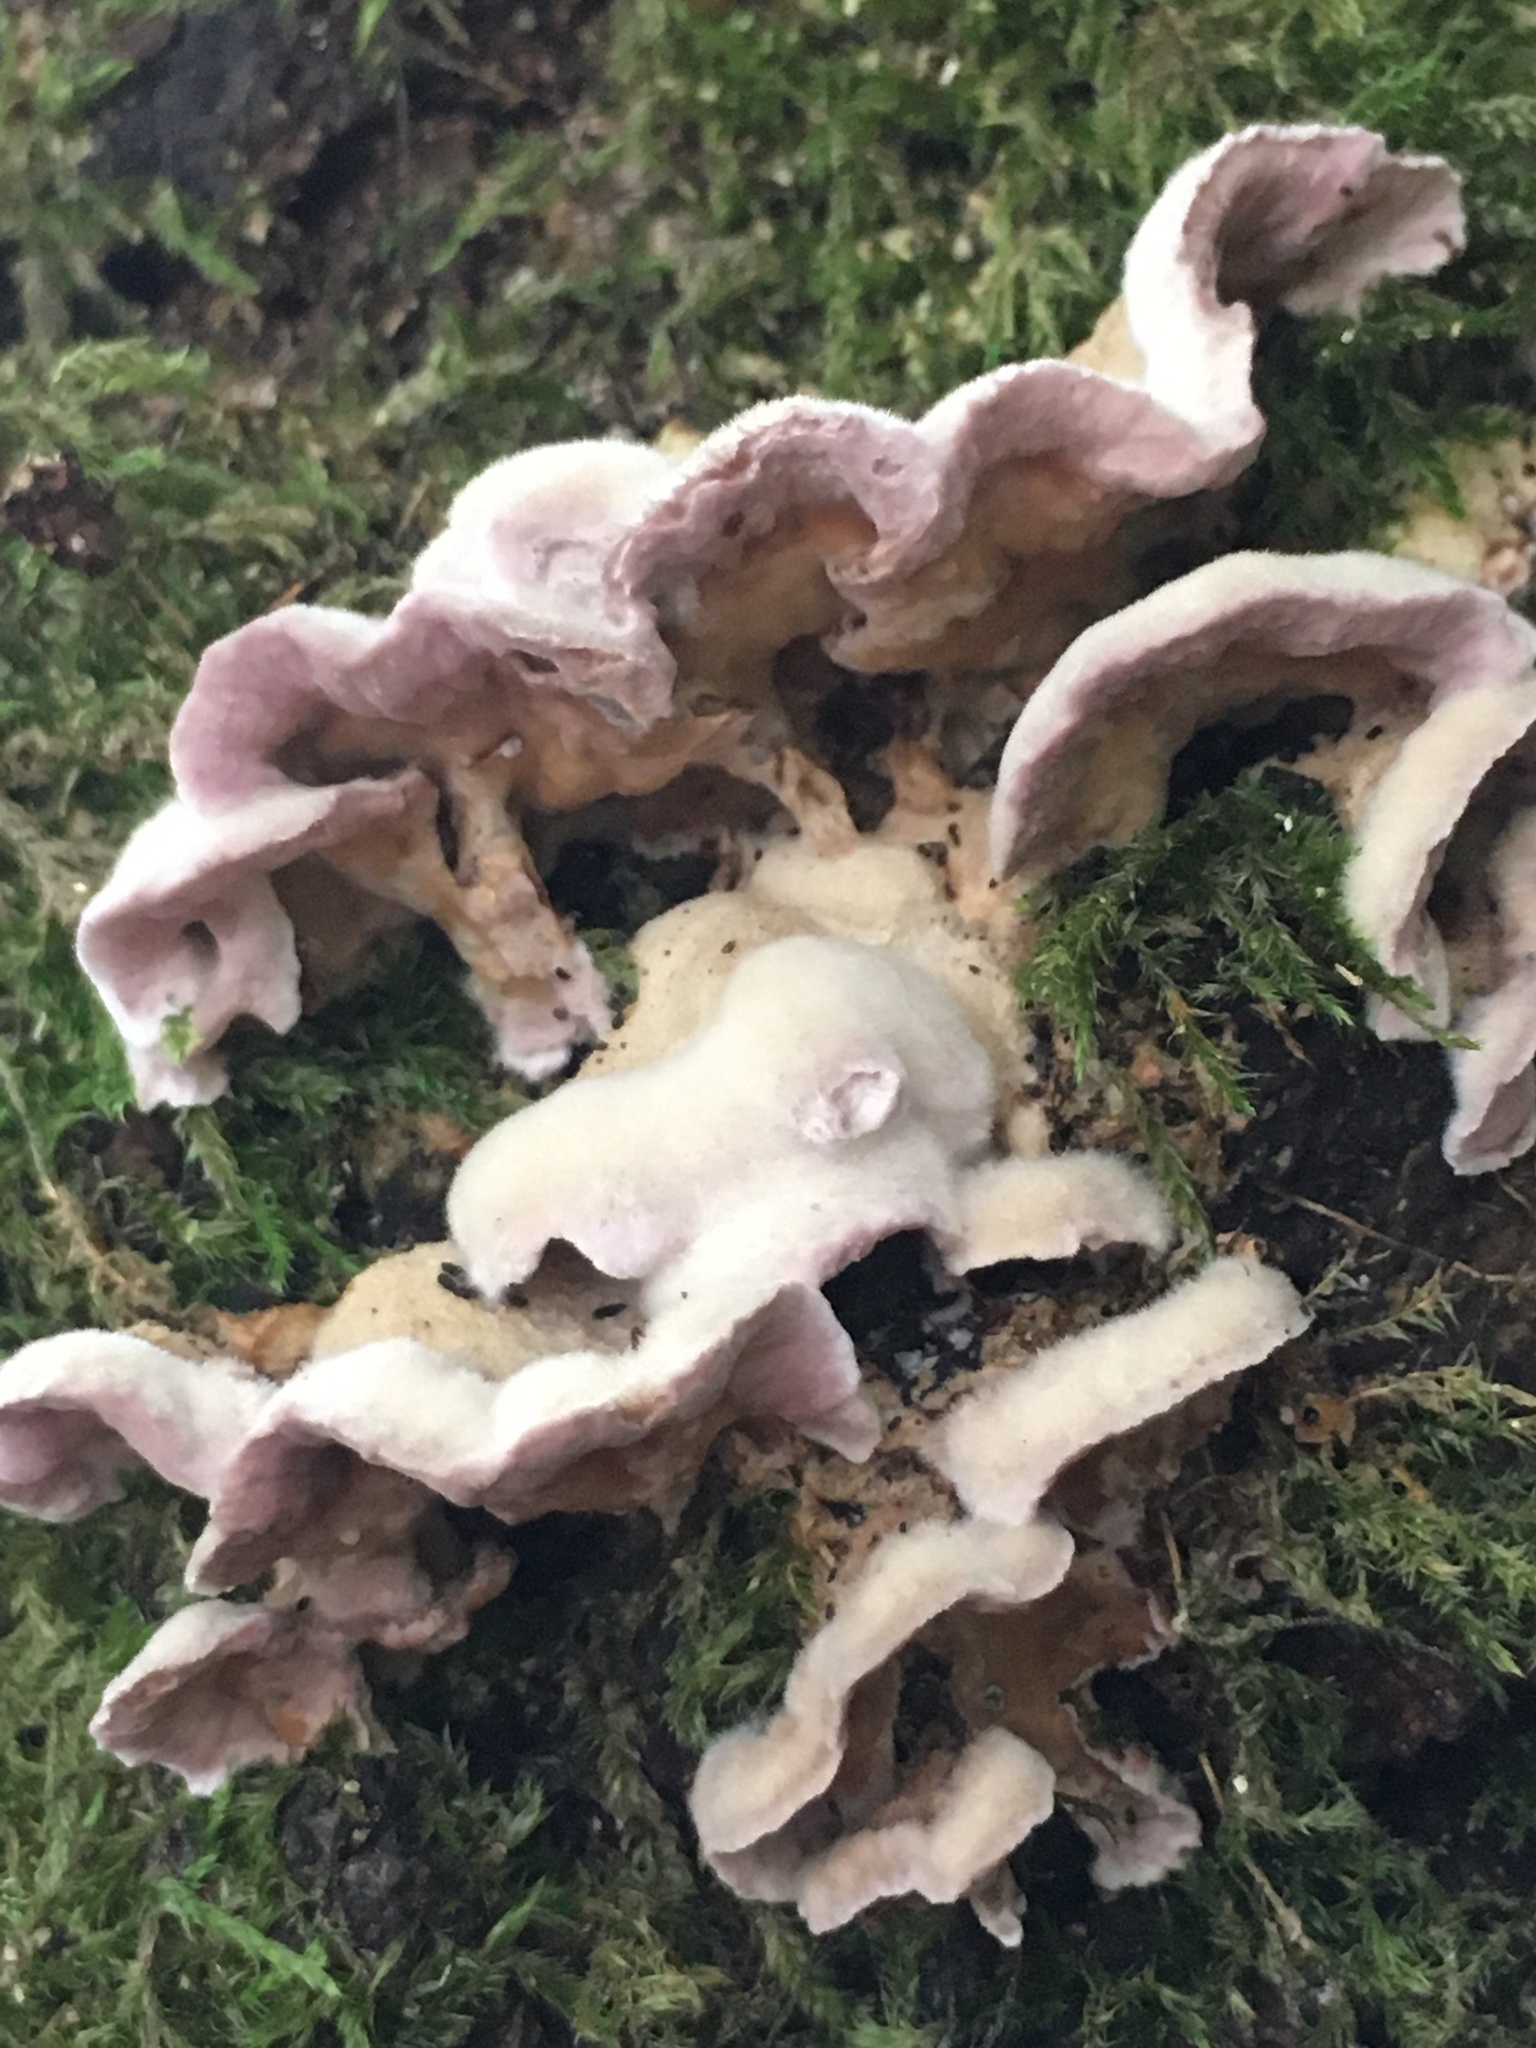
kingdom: Fungi
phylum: Basidiomycota
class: Agaricomycetes
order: Agaricales
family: Cyphellaceae
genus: Chondrostereum
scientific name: Chondrostereum purpureum
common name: Silver leaf disease
